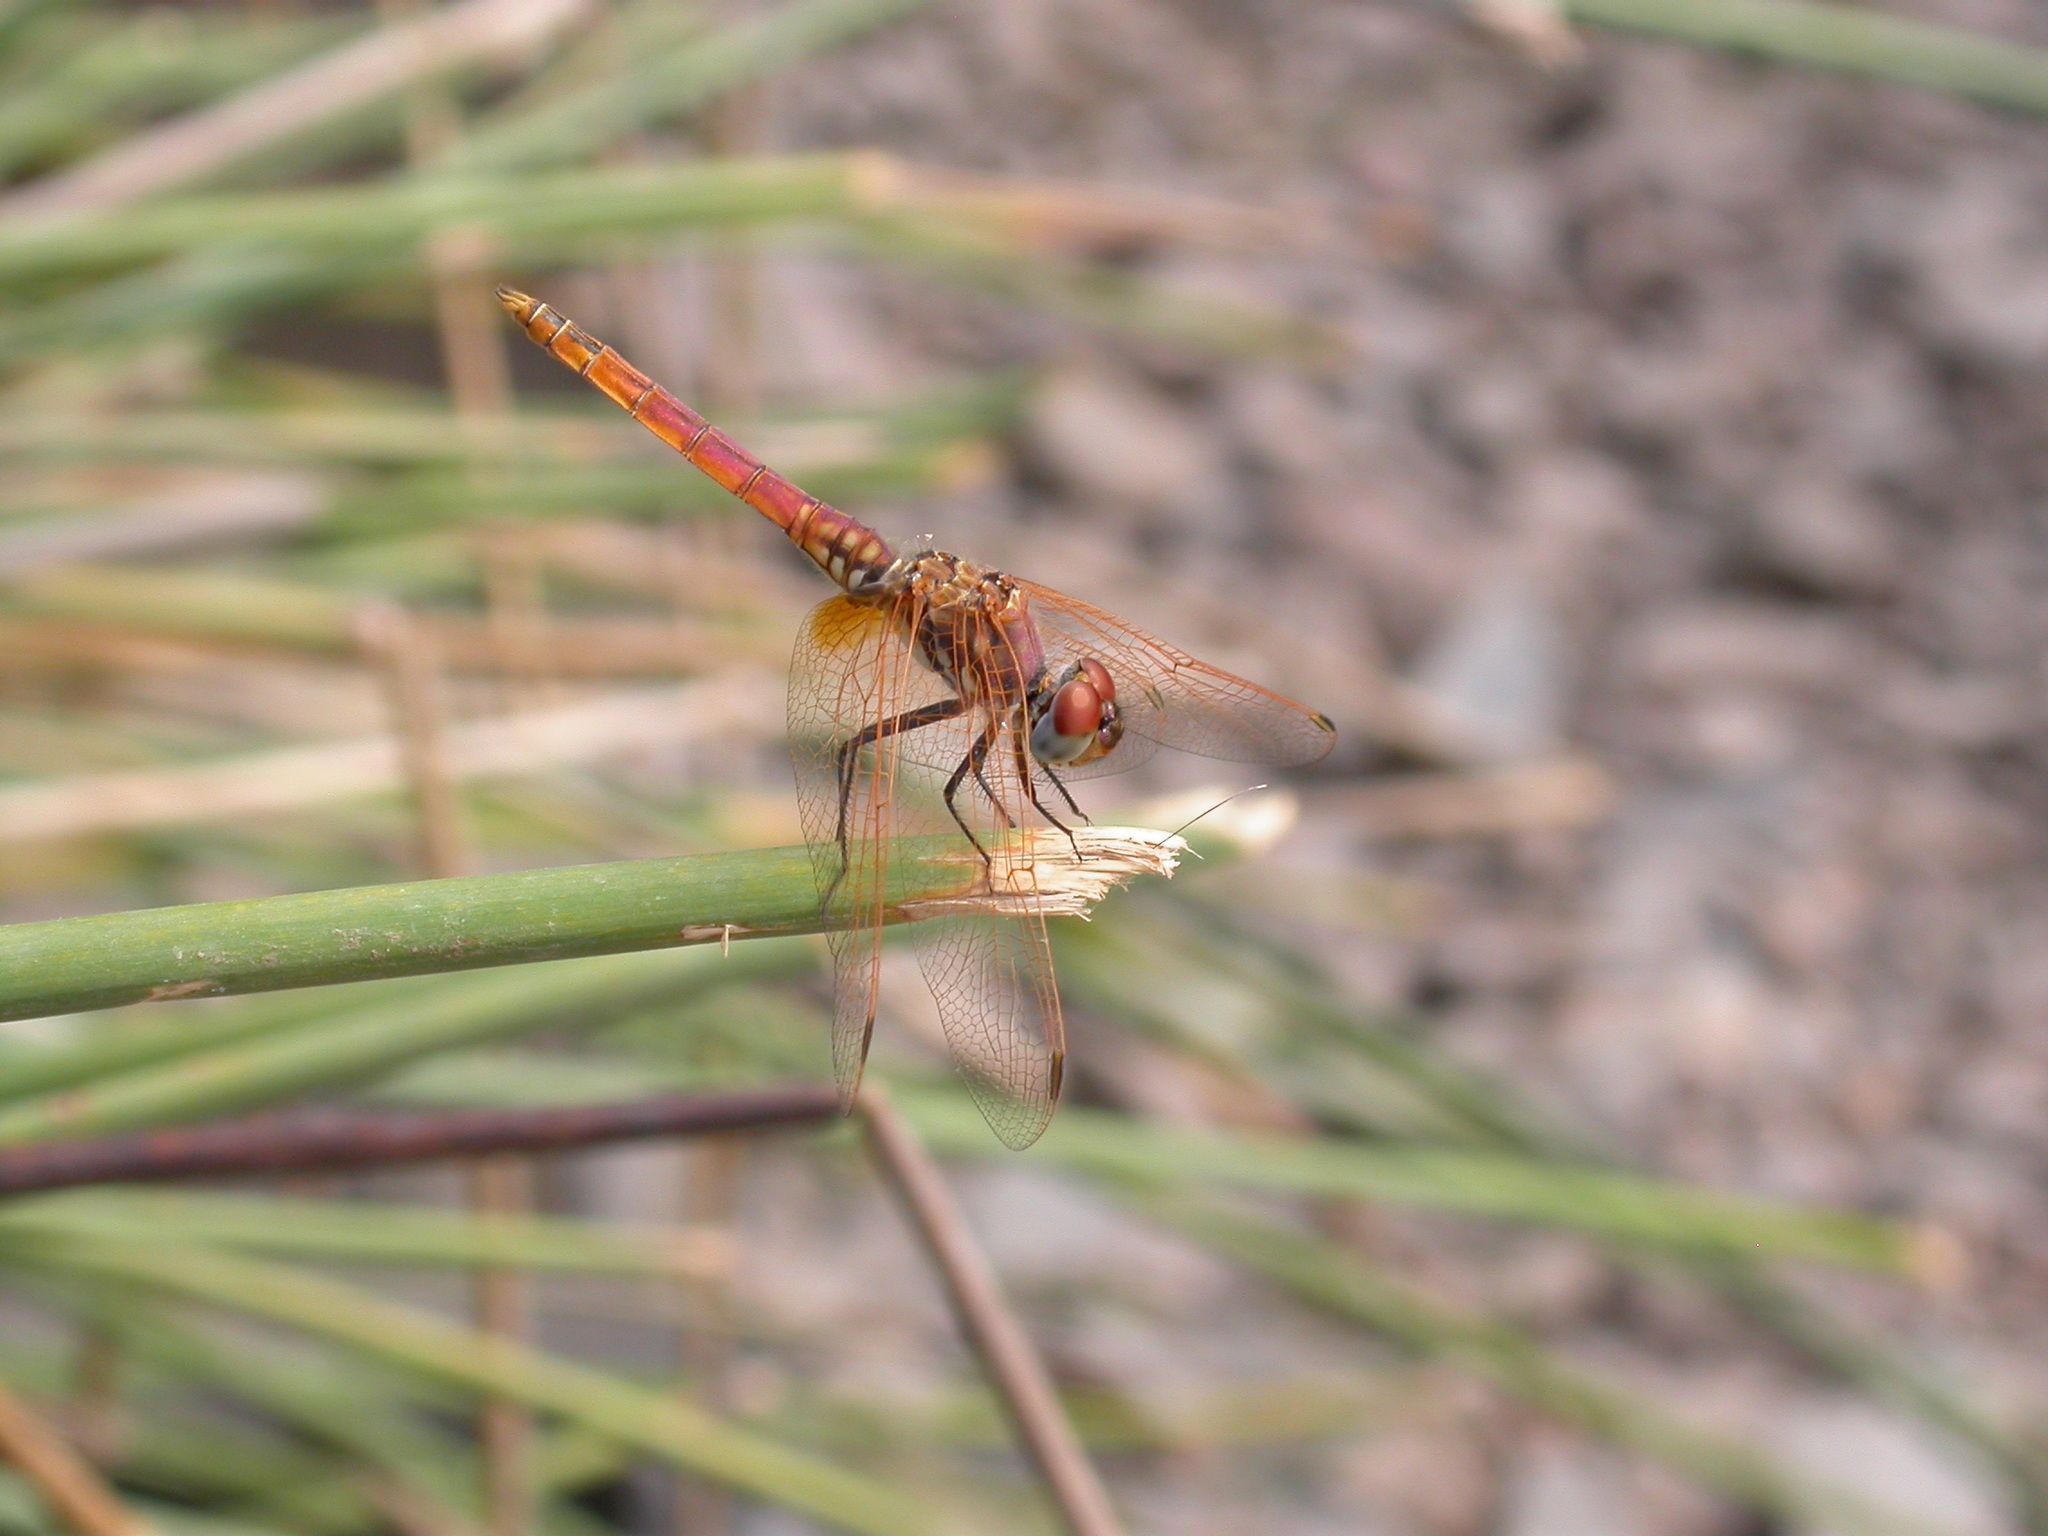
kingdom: Animalia
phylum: Arthropoda
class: Insecta
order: Odonata
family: Libellulidae
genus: Trithemis
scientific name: Trithemis annulata
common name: Violet dropwing
